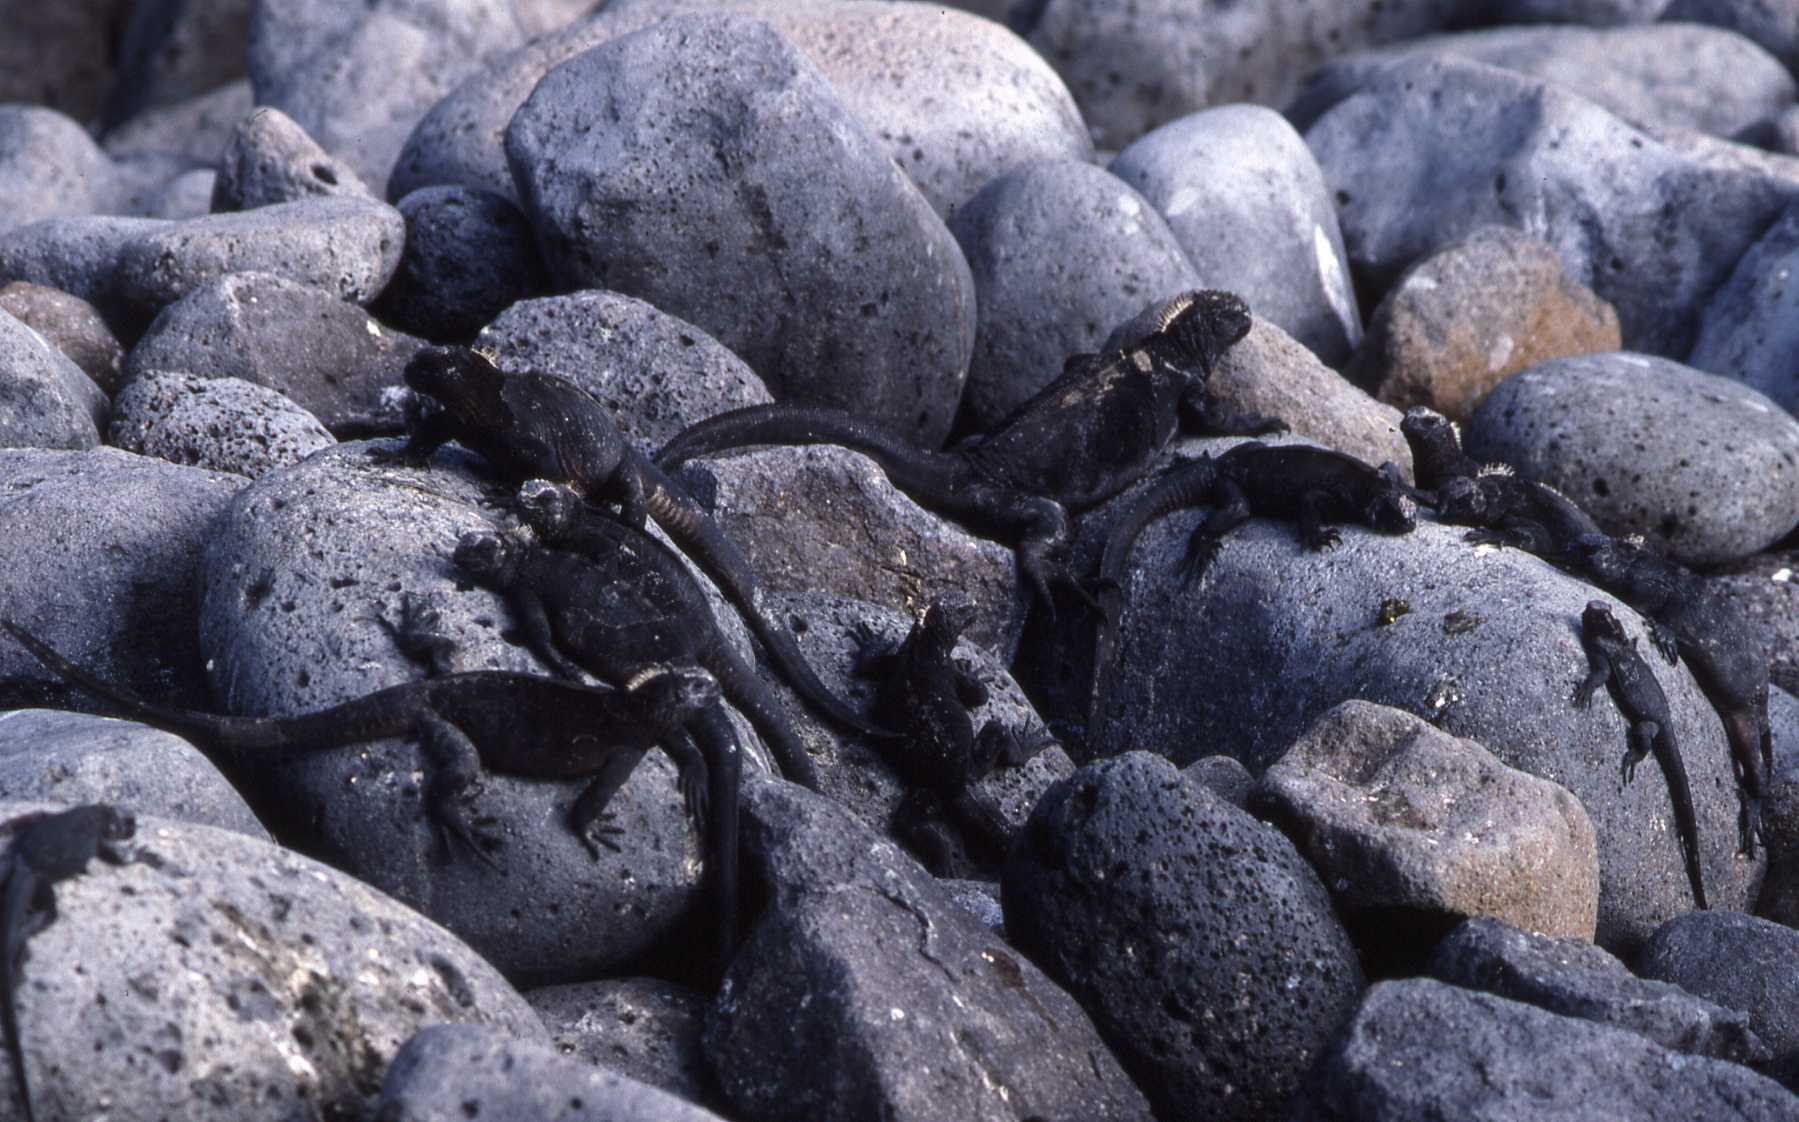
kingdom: Animalia
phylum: Chordata
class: Squamata
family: Iguanidae
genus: Amblyrhynchus
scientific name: Amblyrhynchus cristatus
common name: Marine iguana
